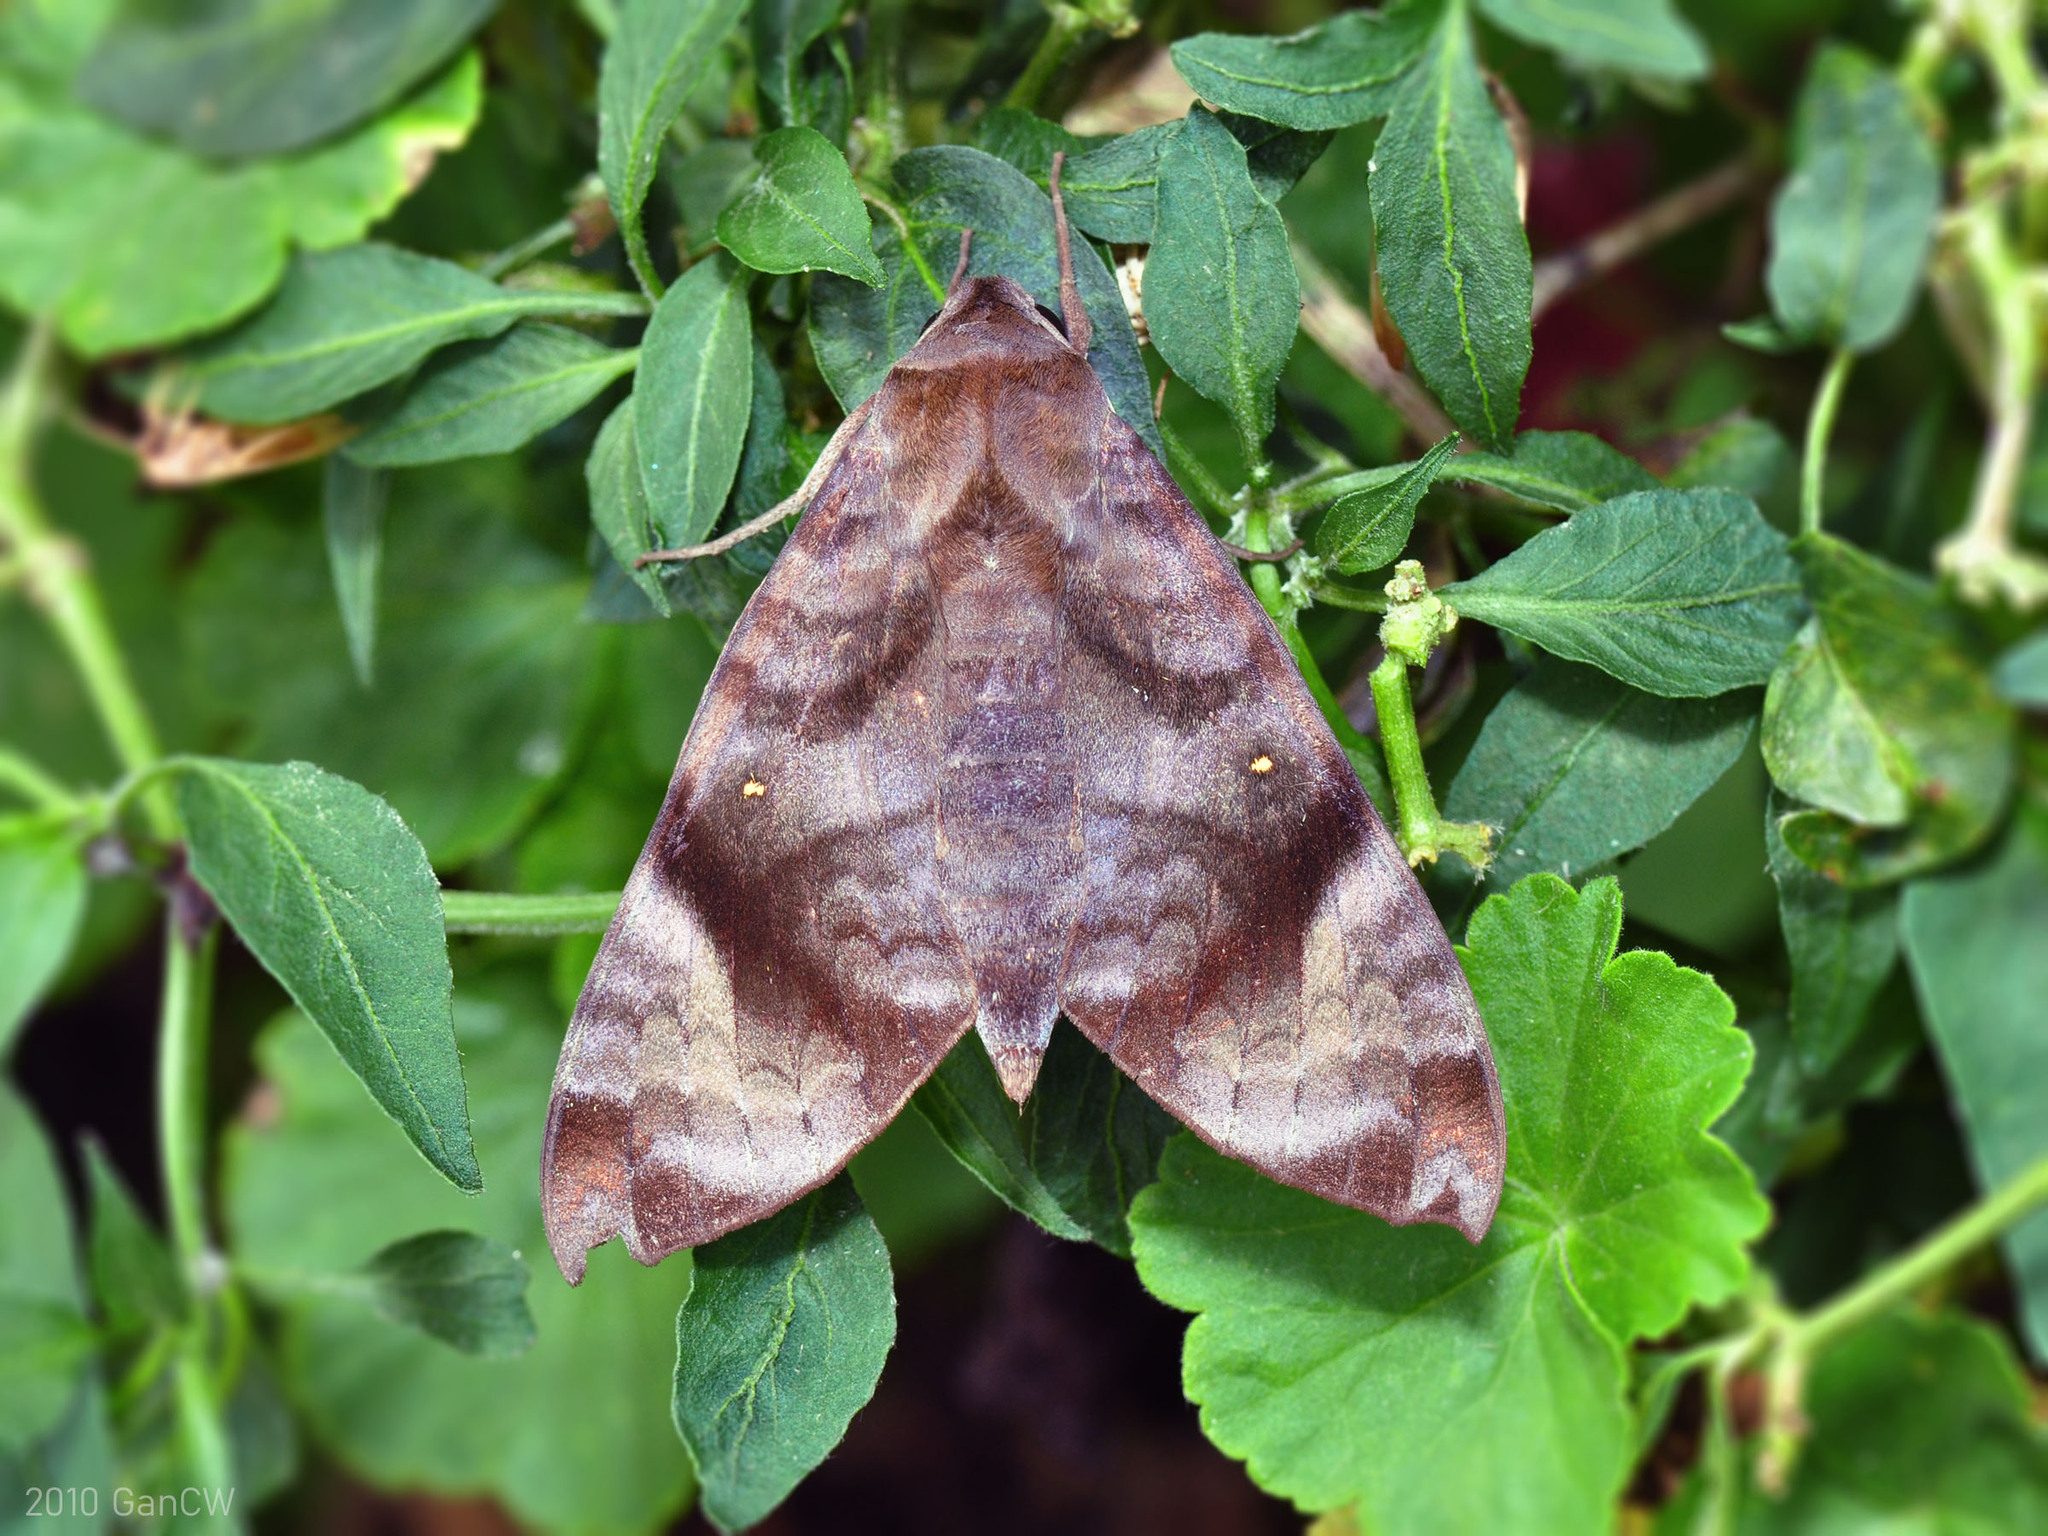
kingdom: Animalia
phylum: Arthropoda
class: Insecta
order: Lepidoptera
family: Sphingidae
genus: Acosmeryx
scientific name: Acosmeryx pseudonaga
